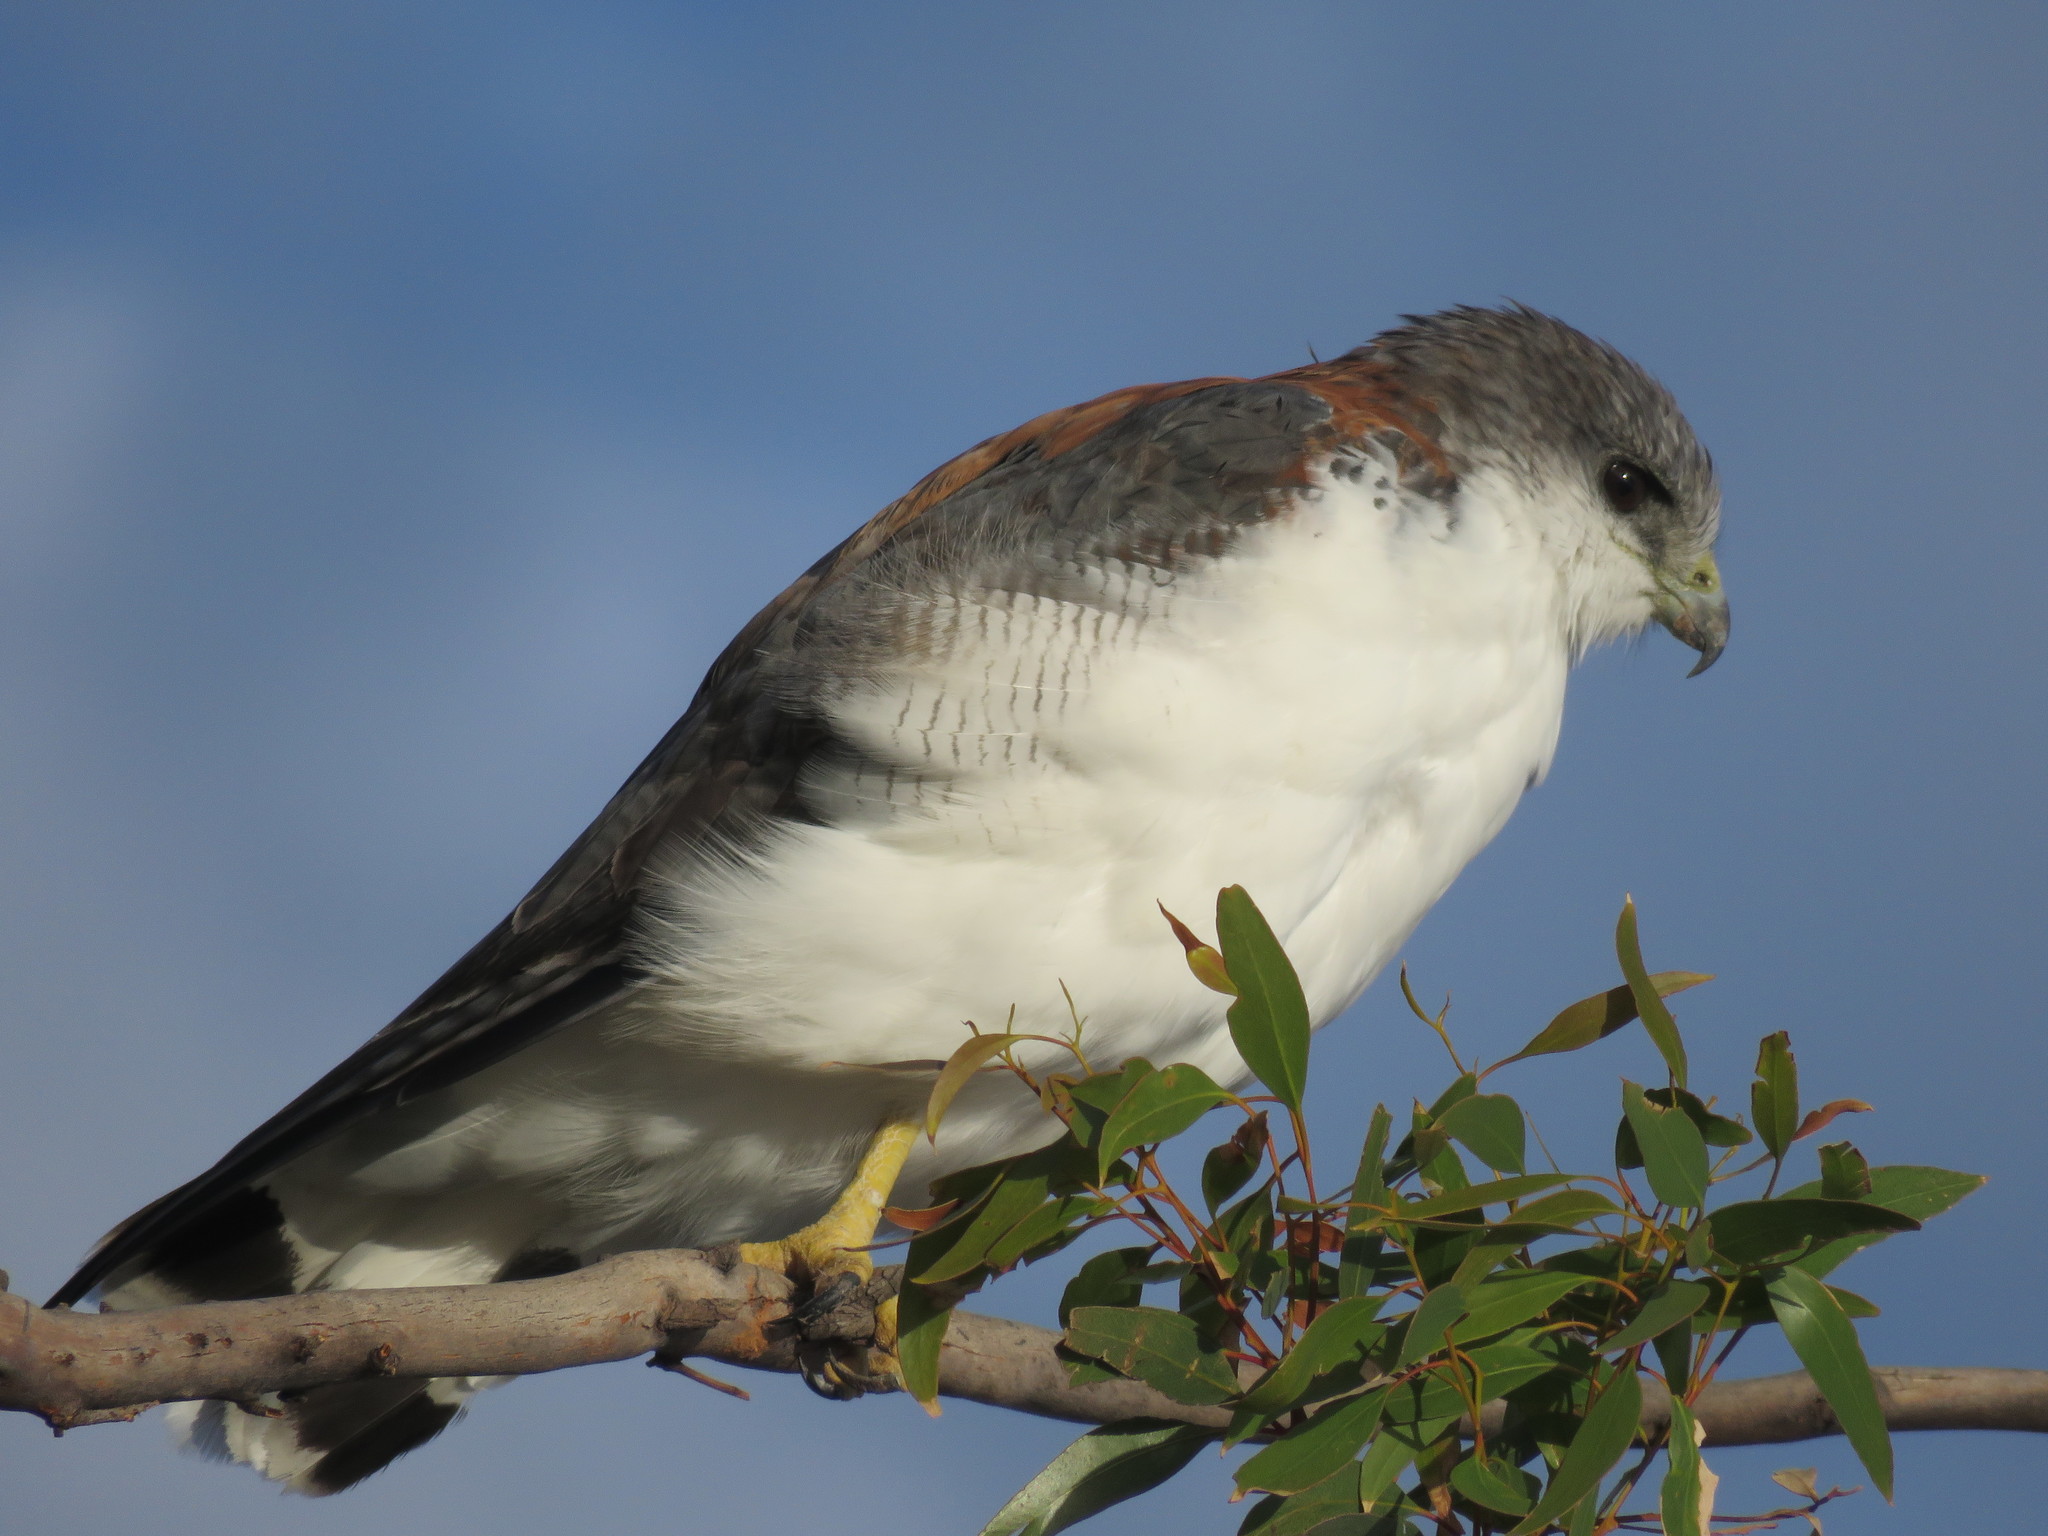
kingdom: Animalia
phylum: Chordata
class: Aves
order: Accipitriformes
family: Accipitridae
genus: Buteo
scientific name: Buteo polyosoma
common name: Variable hawk
